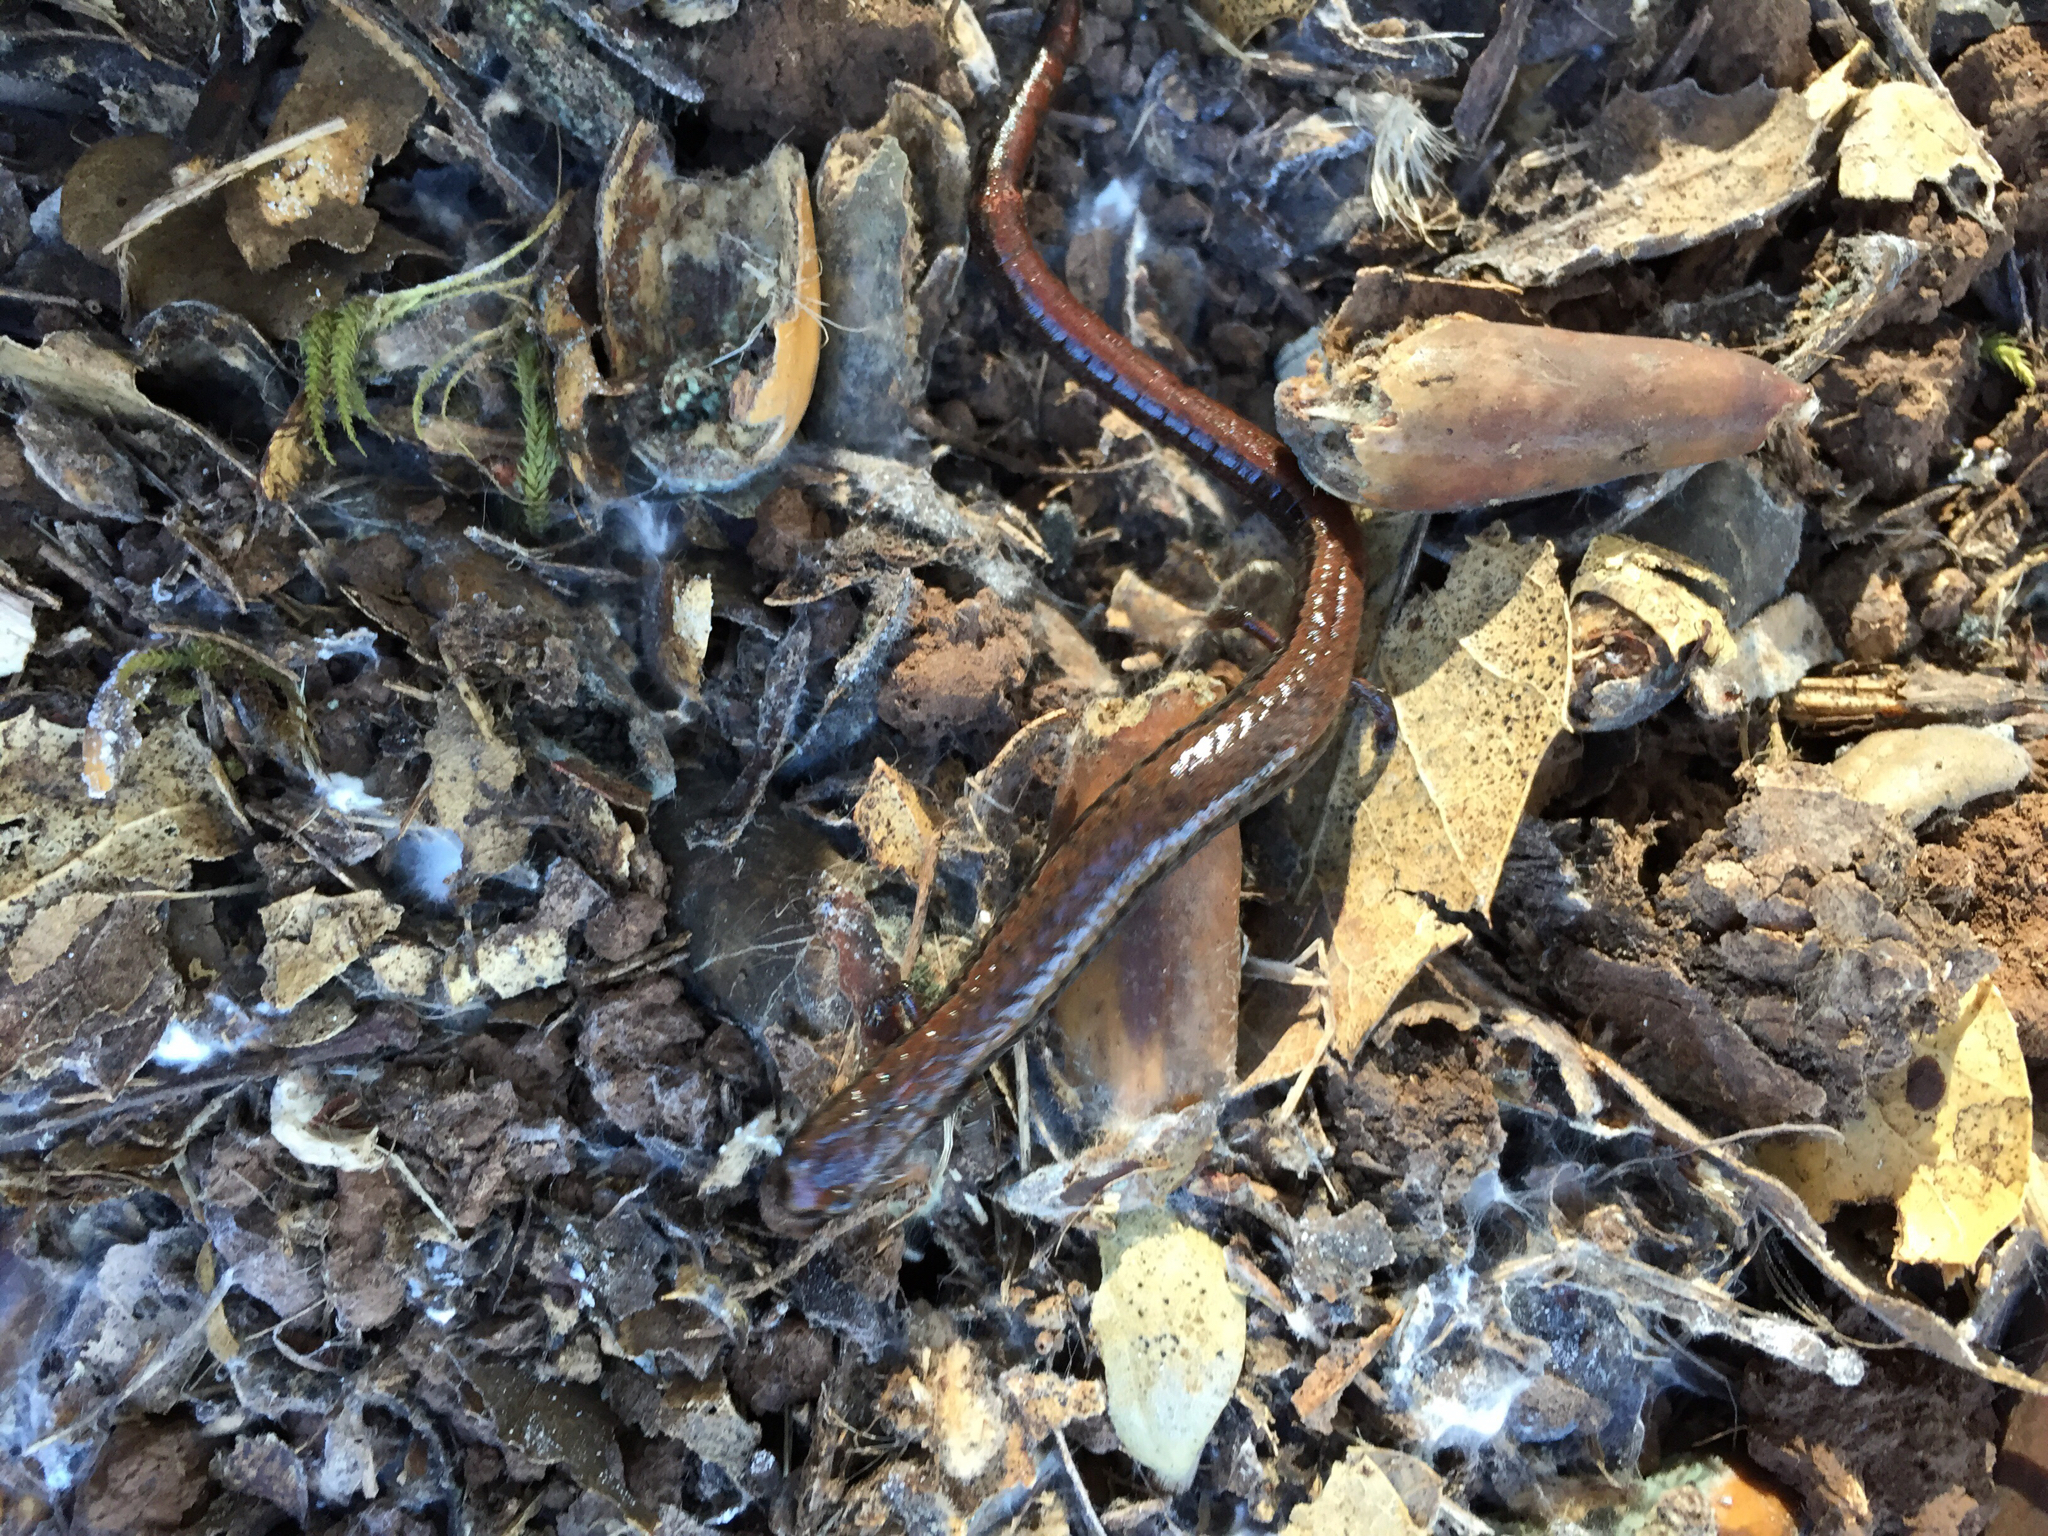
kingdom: Animalia
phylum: Chordata
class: Amphibia
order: Caudata
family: Plethodontidae
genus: Batrachoseps
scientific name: Batrachoseps attenuatus
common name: California slender salamander
